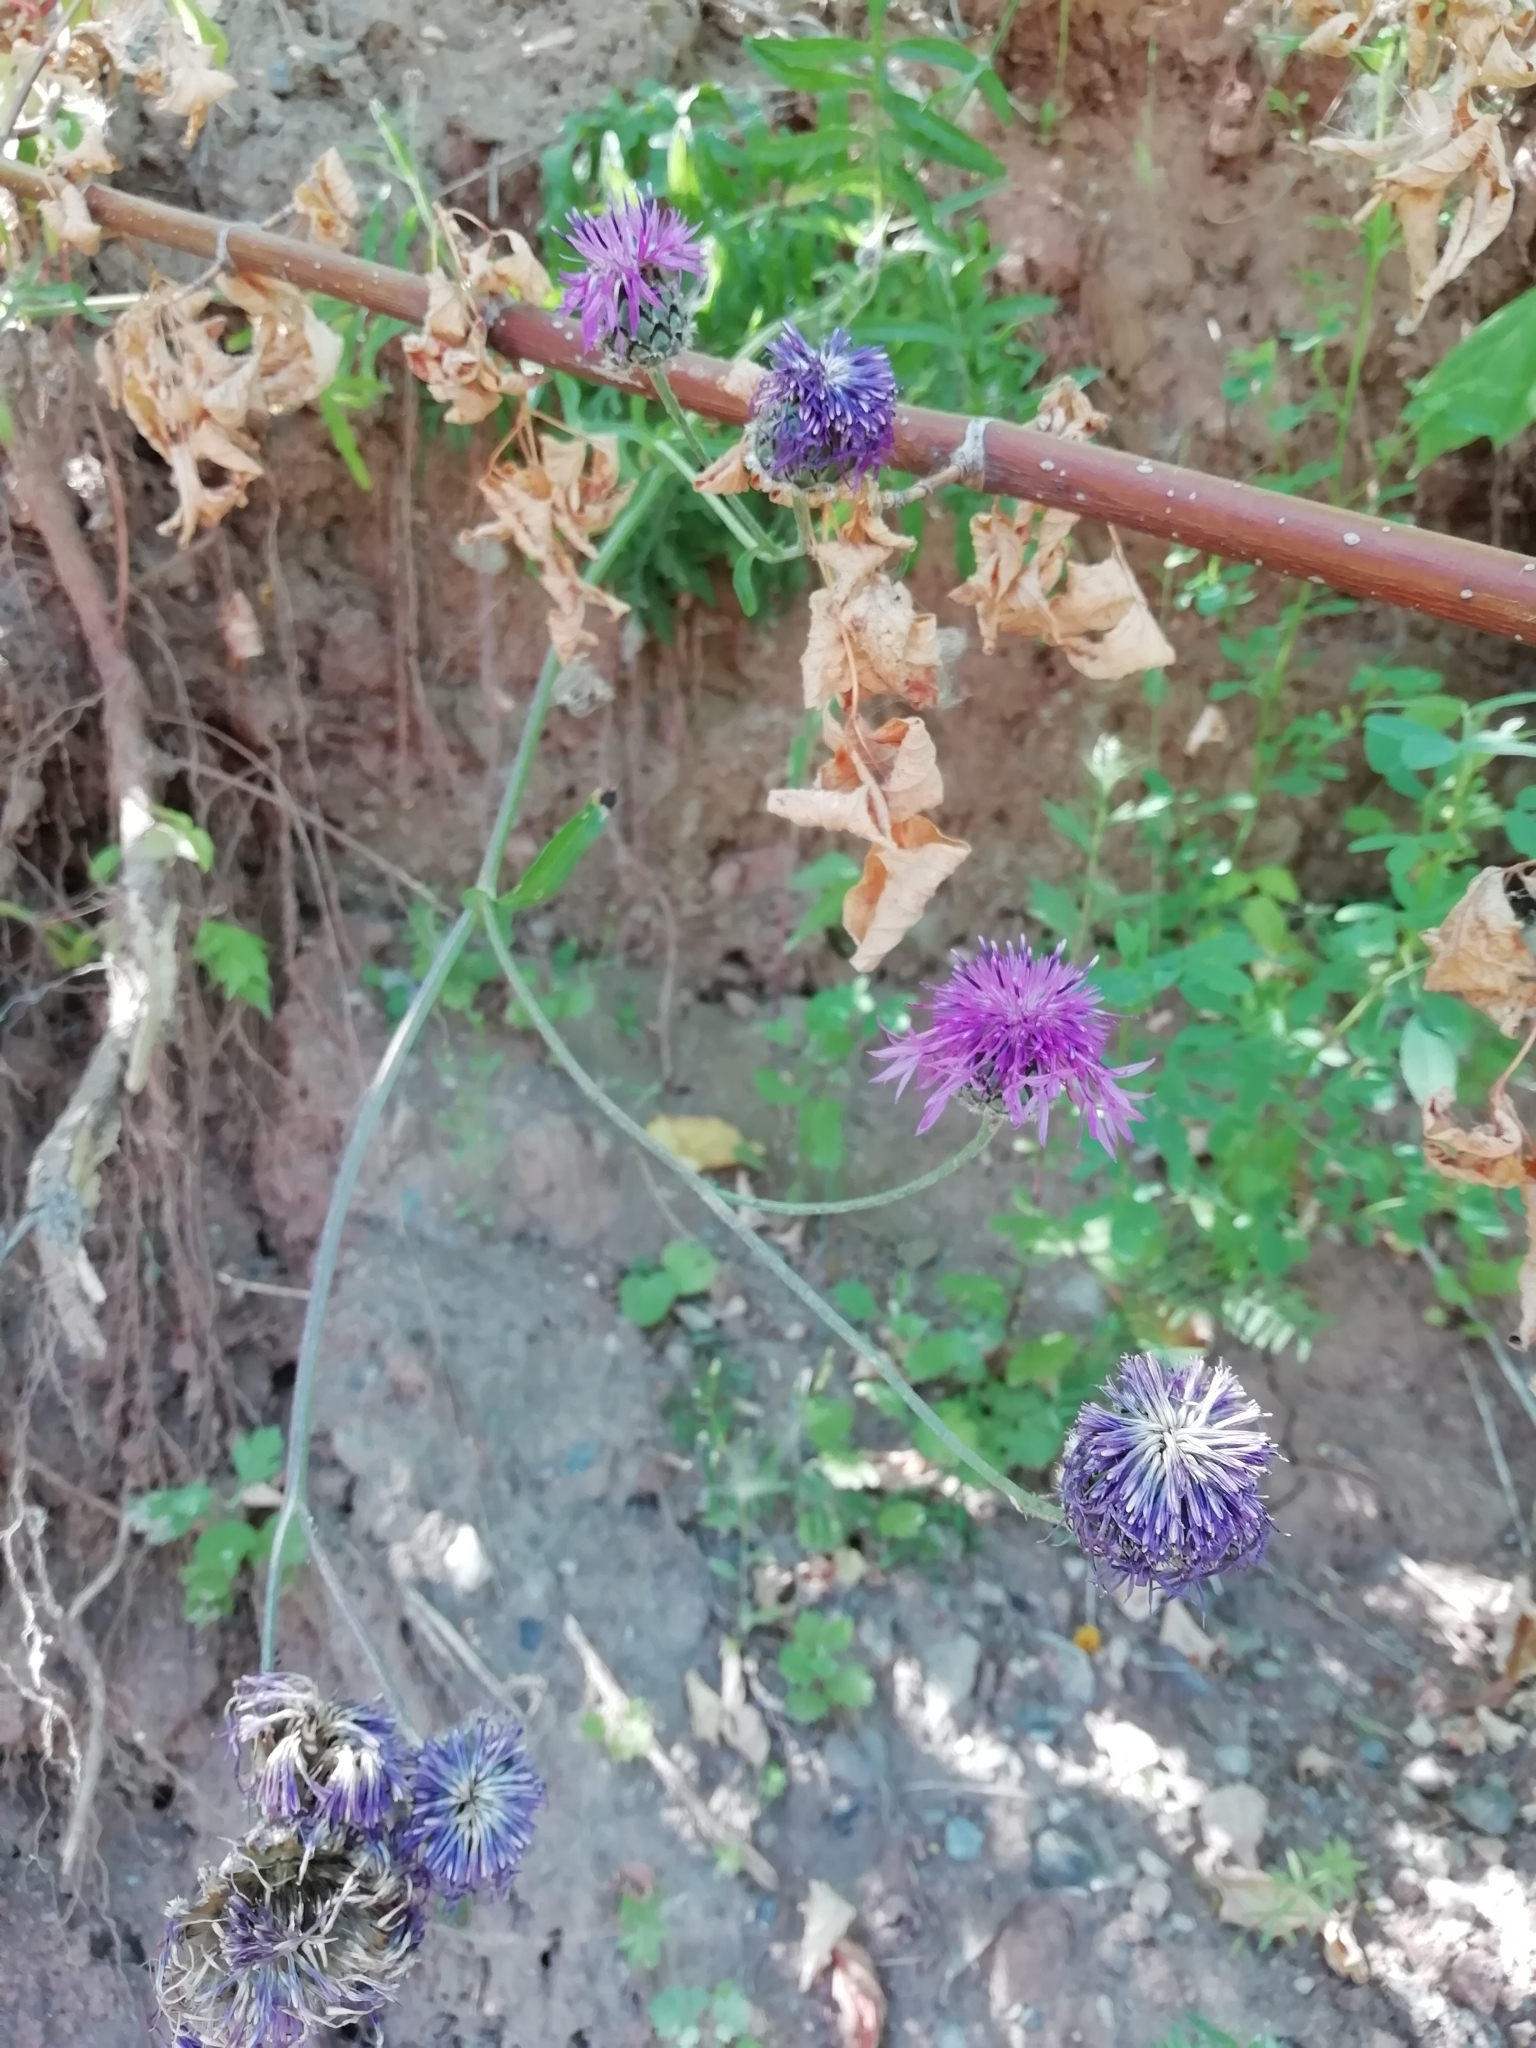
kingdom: Plantae
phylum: Tracheophyta
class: Magnoliopsida
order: Asterales
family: Asteraceae
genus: Centaurea
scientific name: Centaurea scabiosa
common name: Greater knapweed
